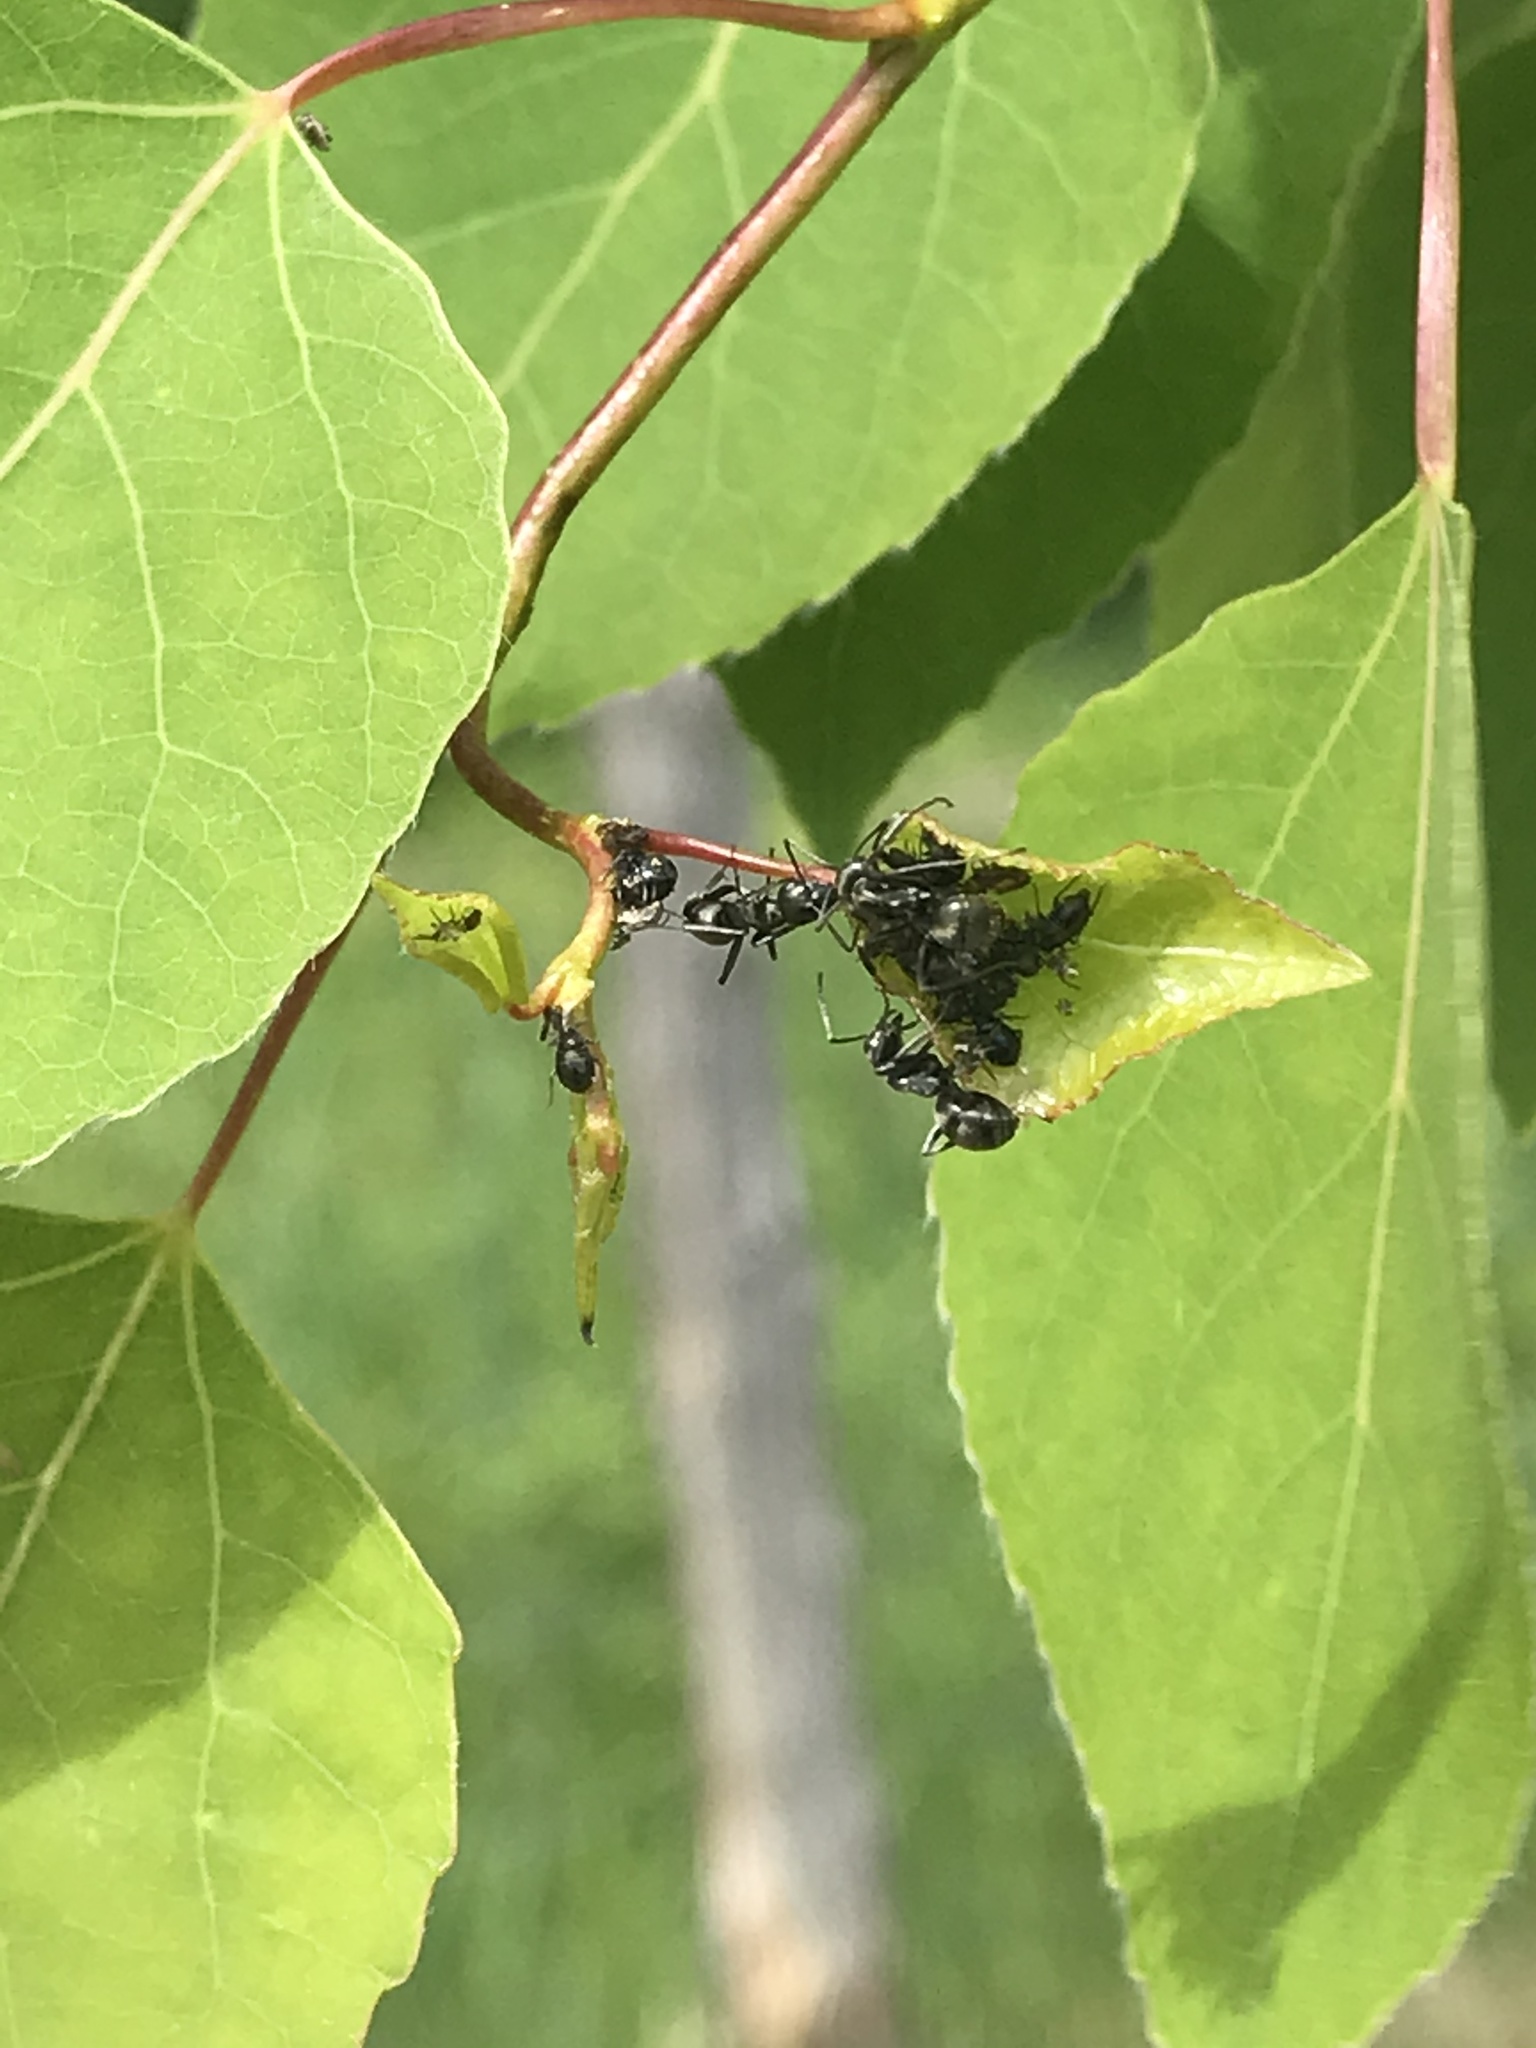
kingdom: Animalia
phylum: Arthropoda
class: Insecta
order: Hymenoptera
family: Formicidae
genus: Formica
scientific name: Formica
